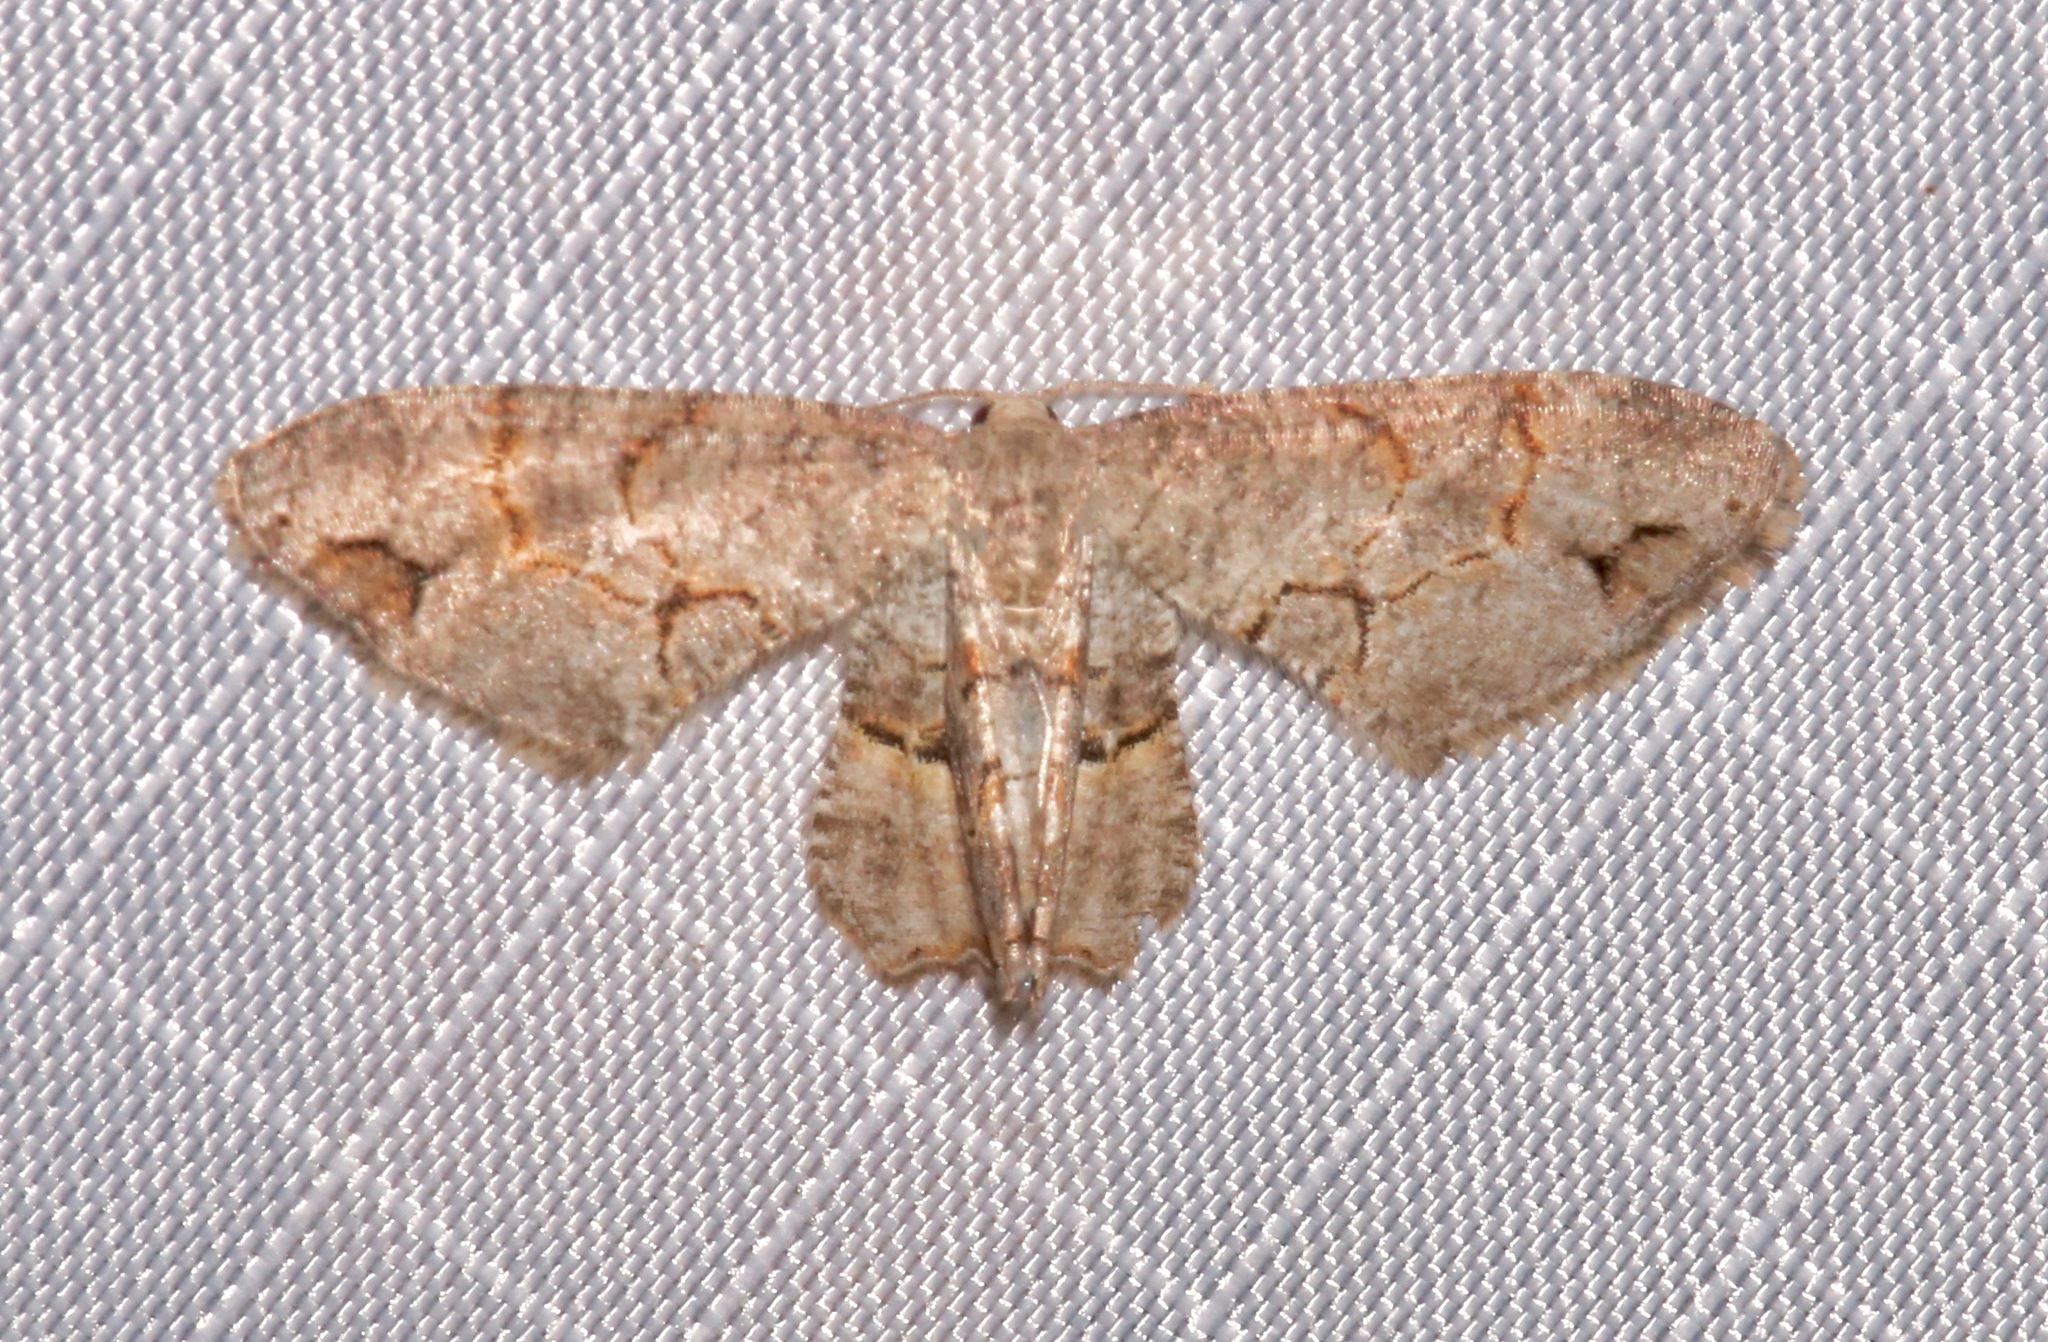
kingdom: Animalia
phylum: Arthropoda
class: Insecta
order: Lepidoptera
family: Uraniidae
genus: Epiplema
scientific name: Epiplema Callizzia amorata
